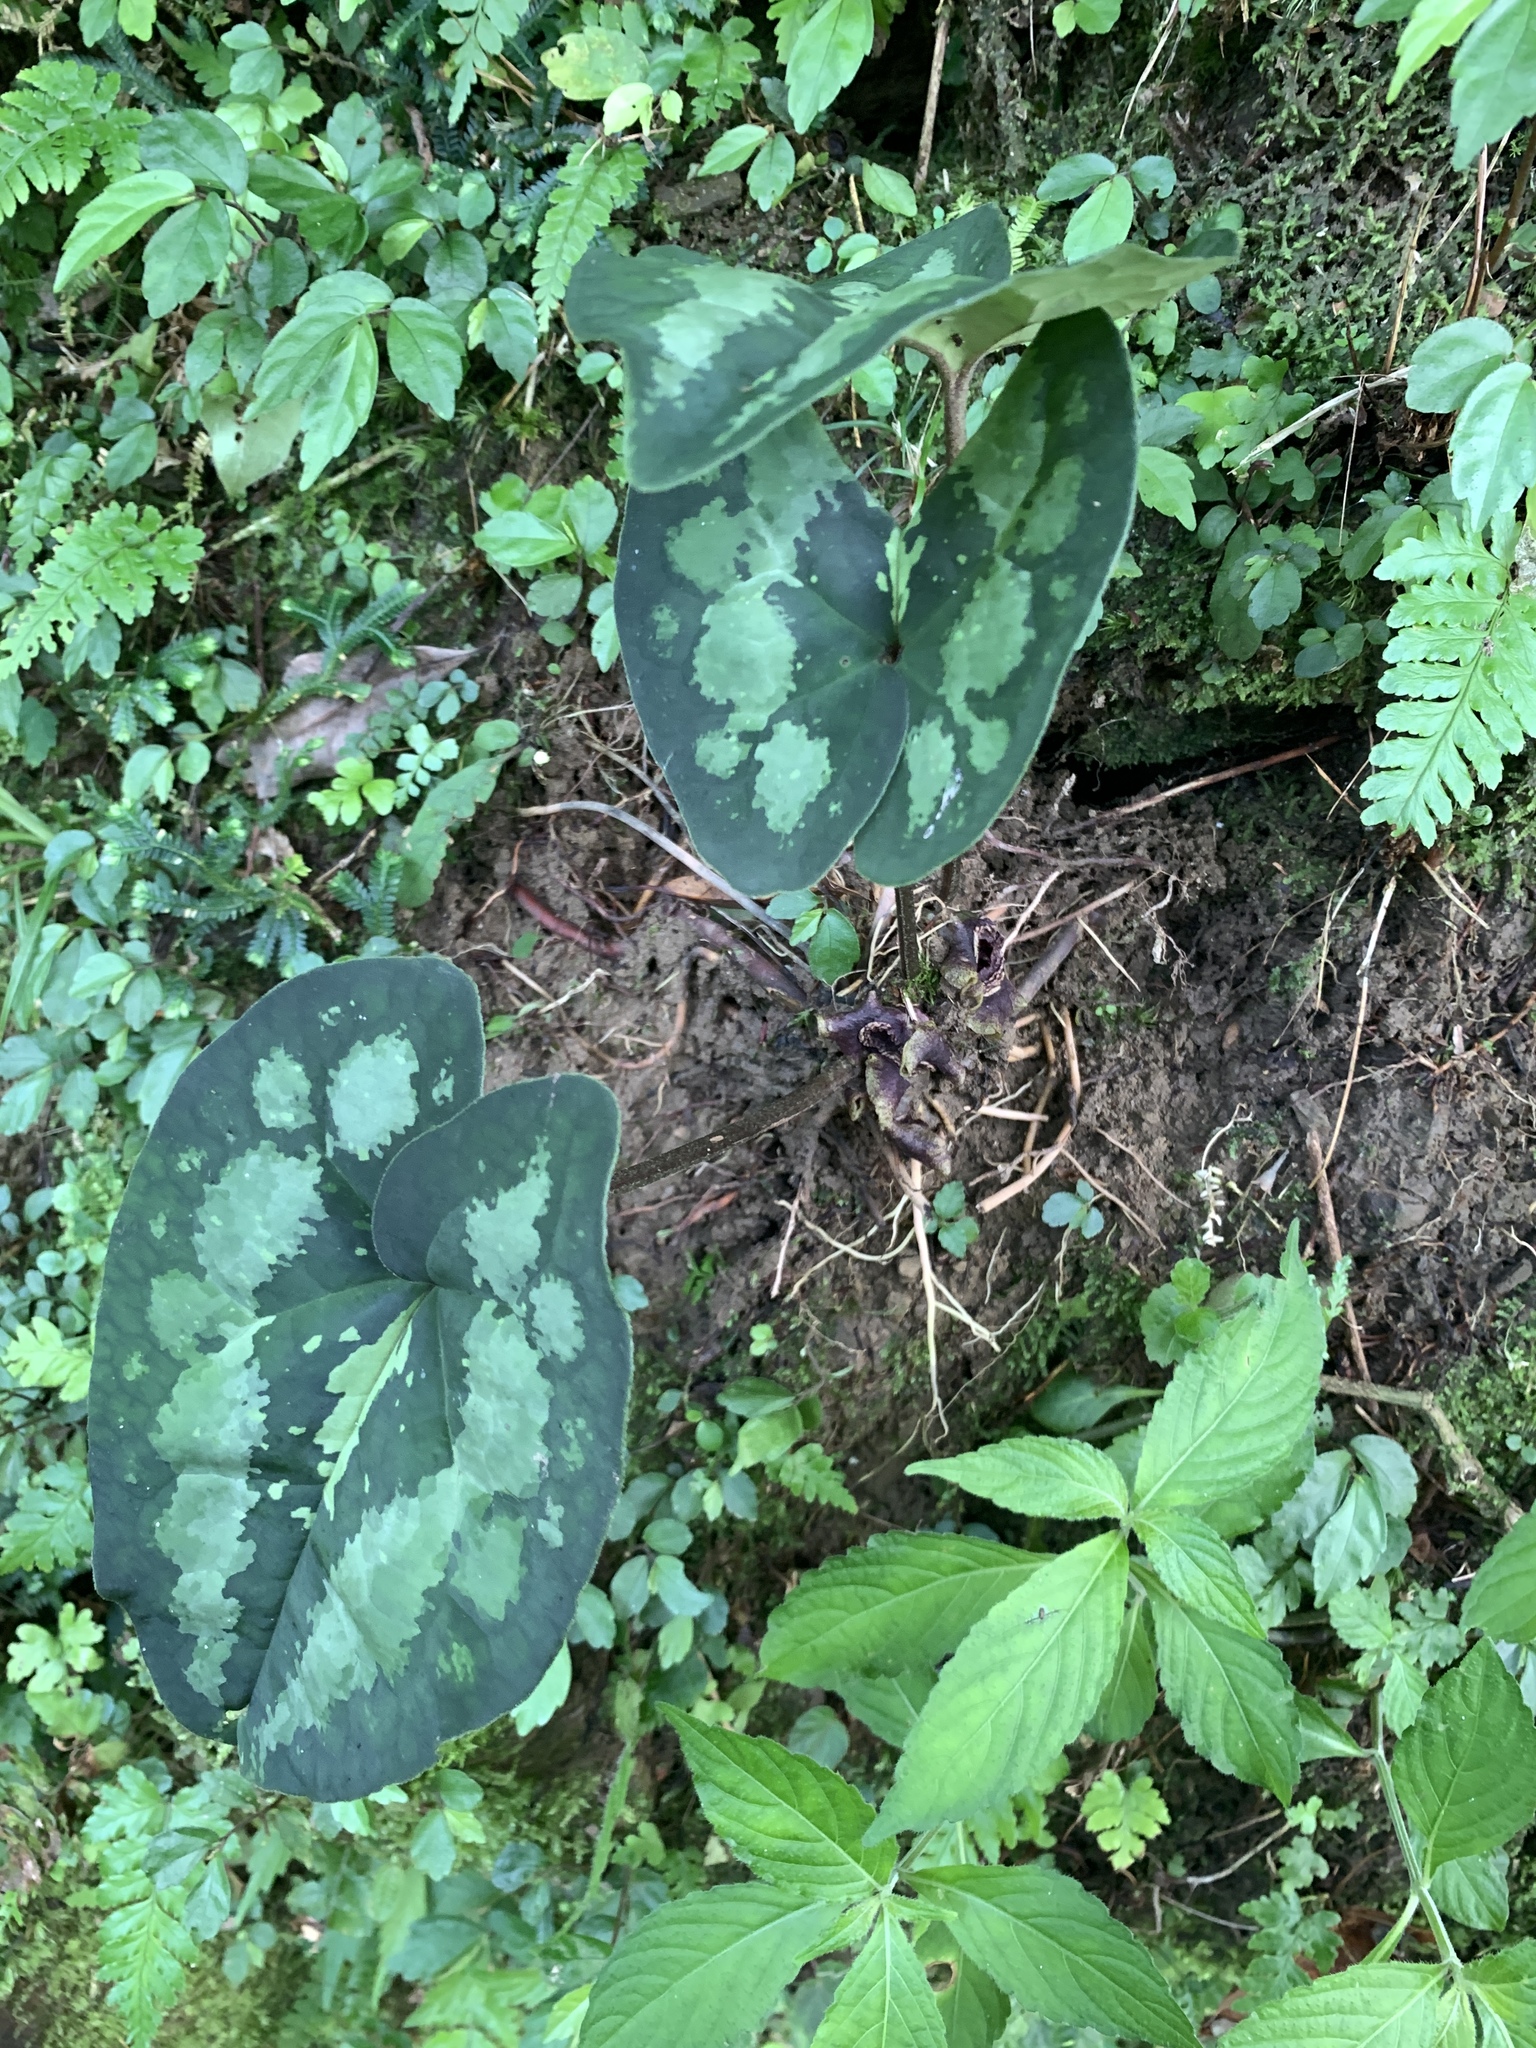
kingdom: Plantae
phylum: Tracheophyta
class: Magnoliopsida
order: Piperales
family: Aristolochiaceae
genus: Asarum
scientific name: Asarum macranthum
